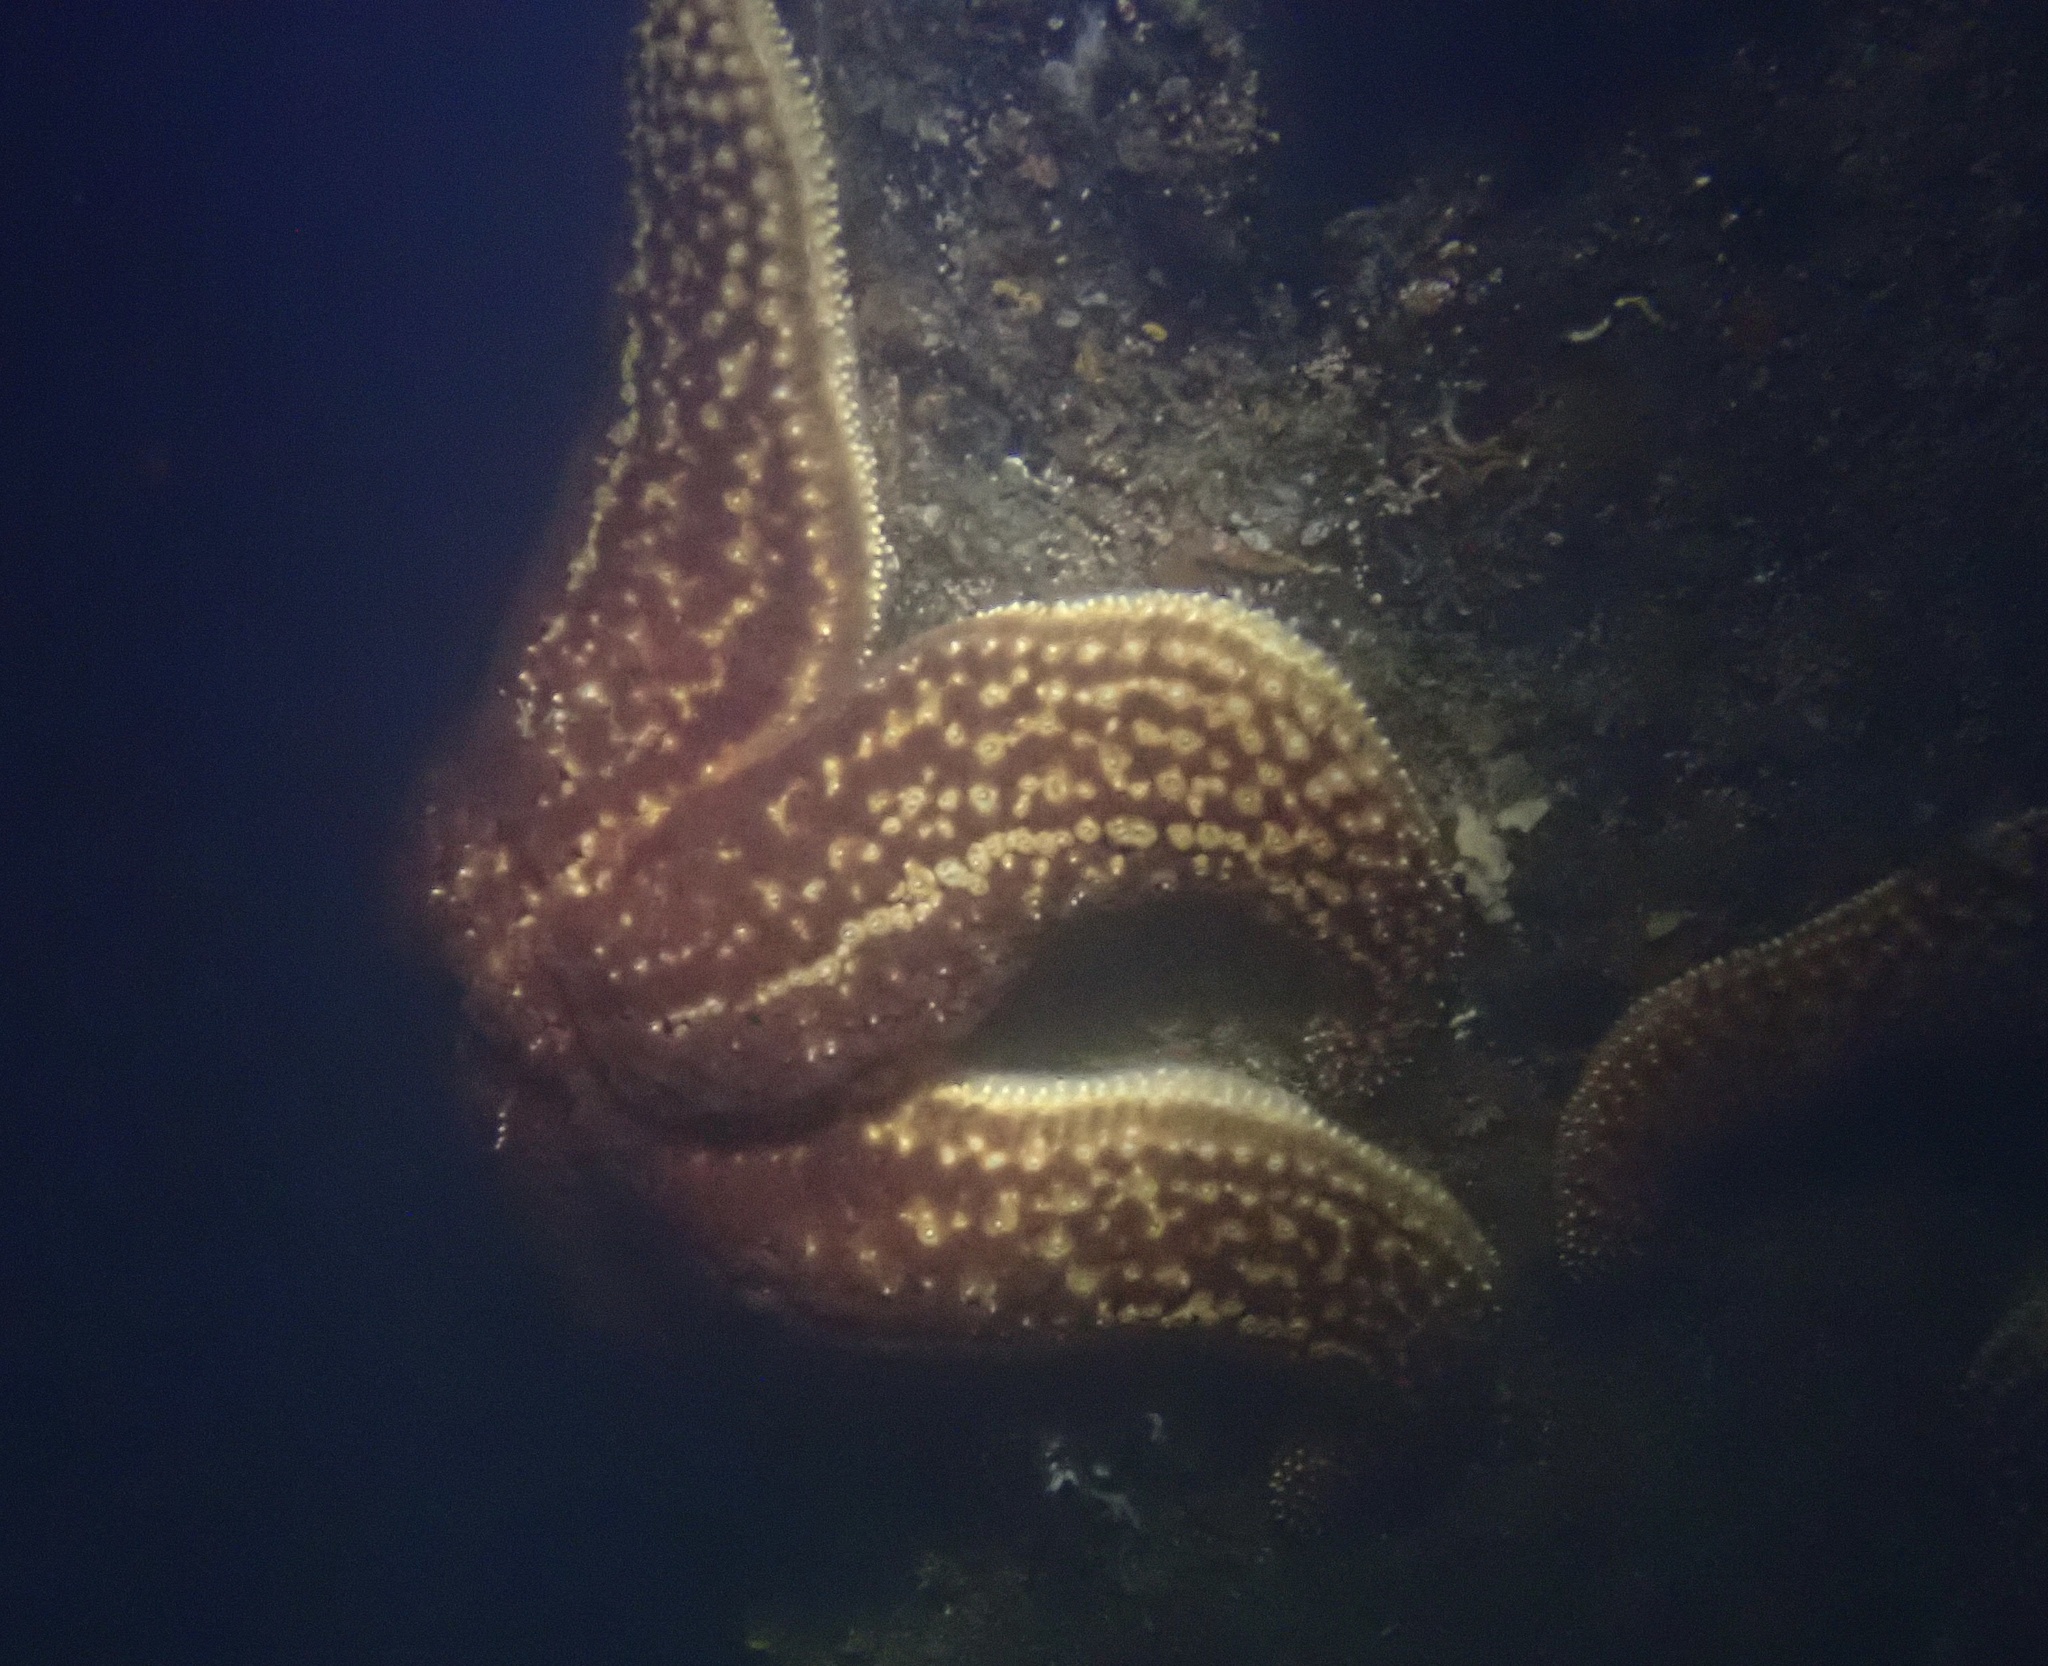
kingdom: Animalia
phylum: Echinodermata
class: Asteroidea
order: Forcipulatida
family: Asteriidae
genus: Pisaster
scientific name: Pisaster giganteus
